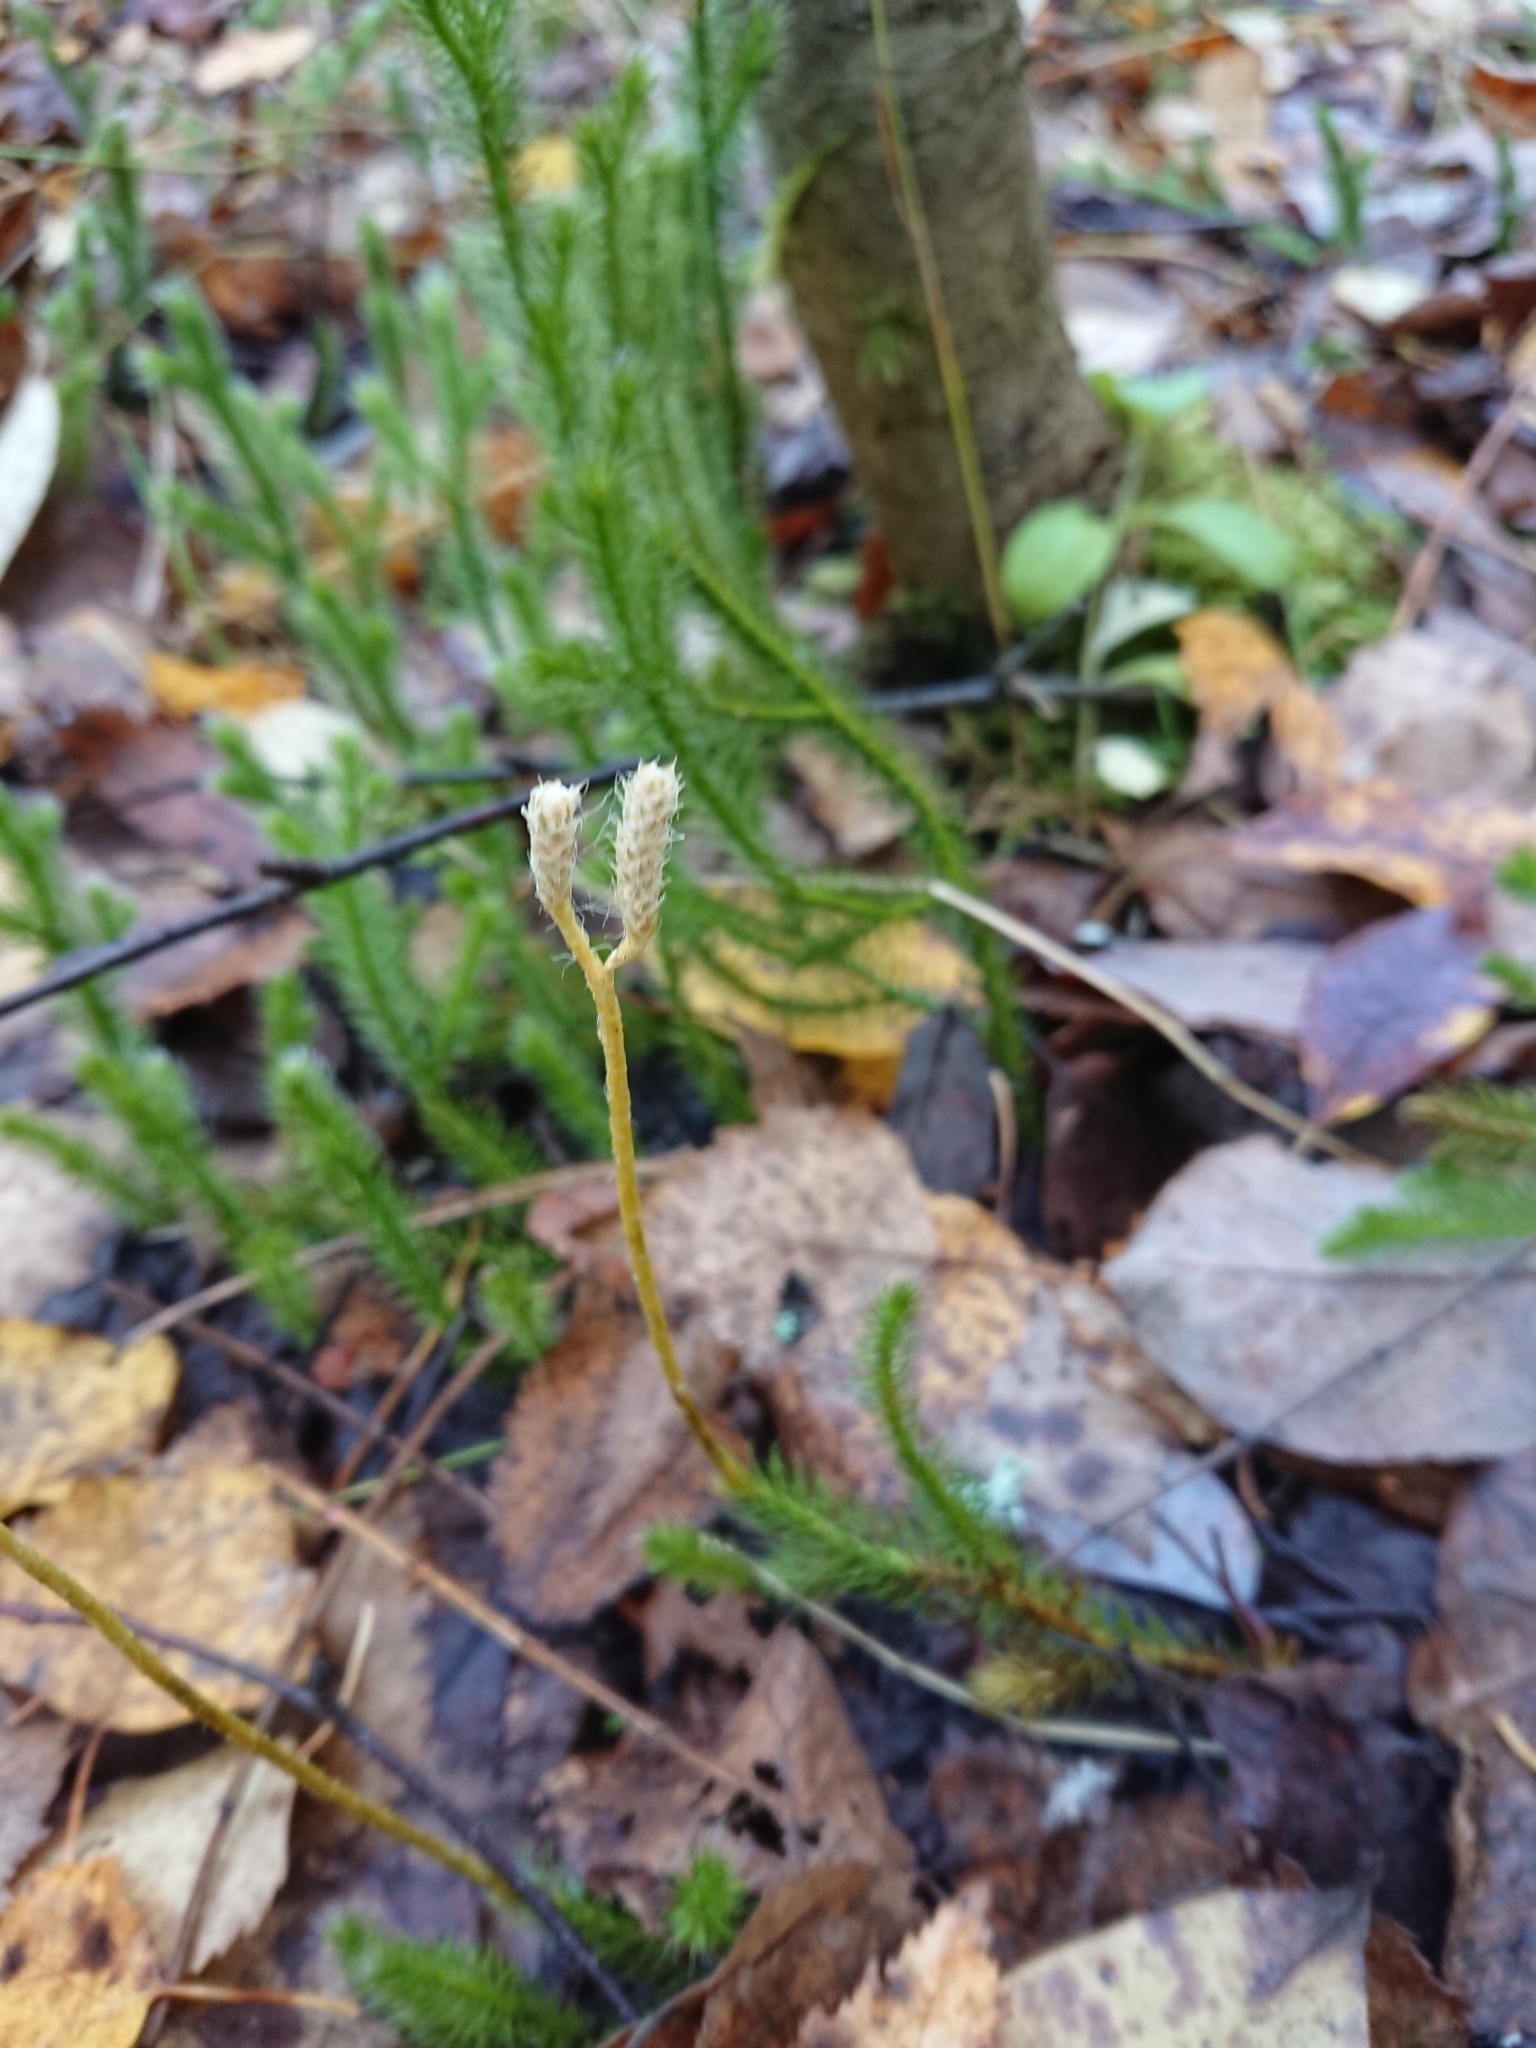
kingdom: Plantae
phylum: Tracheophyta
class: Lycopodiopsida
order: Lycopodiales
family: Lycopodiaceae
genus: Lycopodium
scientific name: Lycopodium clavatum
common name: Stag's-horn clubmoss
